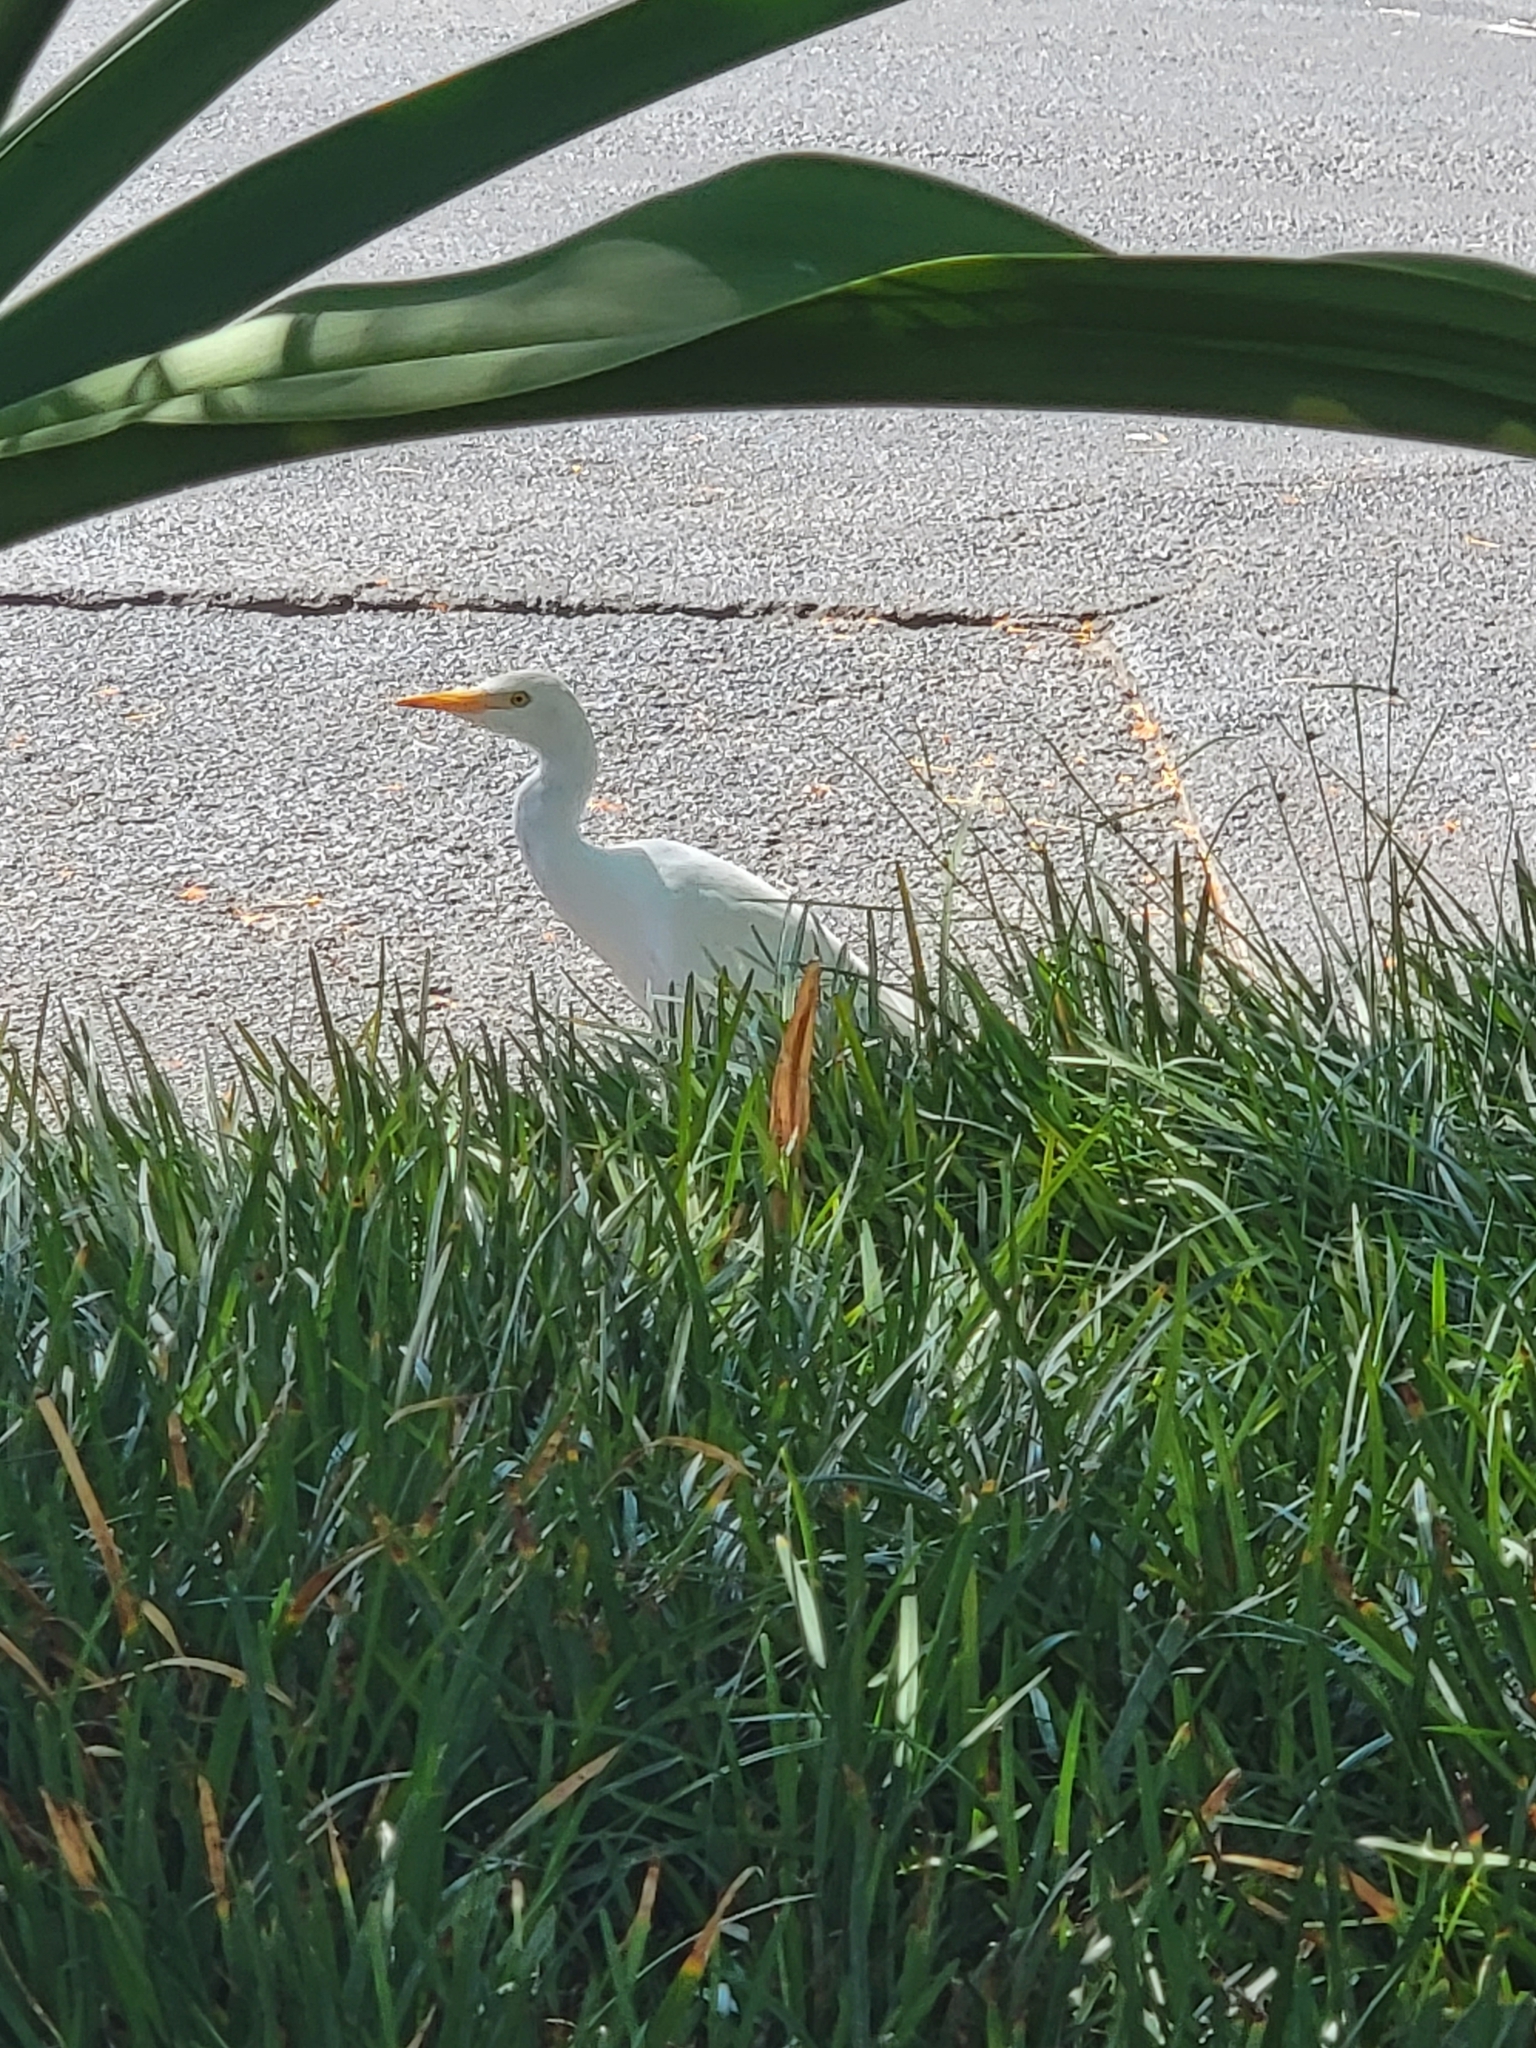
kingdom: Animalia
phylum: Chordata
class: Aves
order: Pelecaniformes
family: Ardeidae
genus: Bubulcus
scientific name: Bubulcus ibis
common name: Cattle egret
